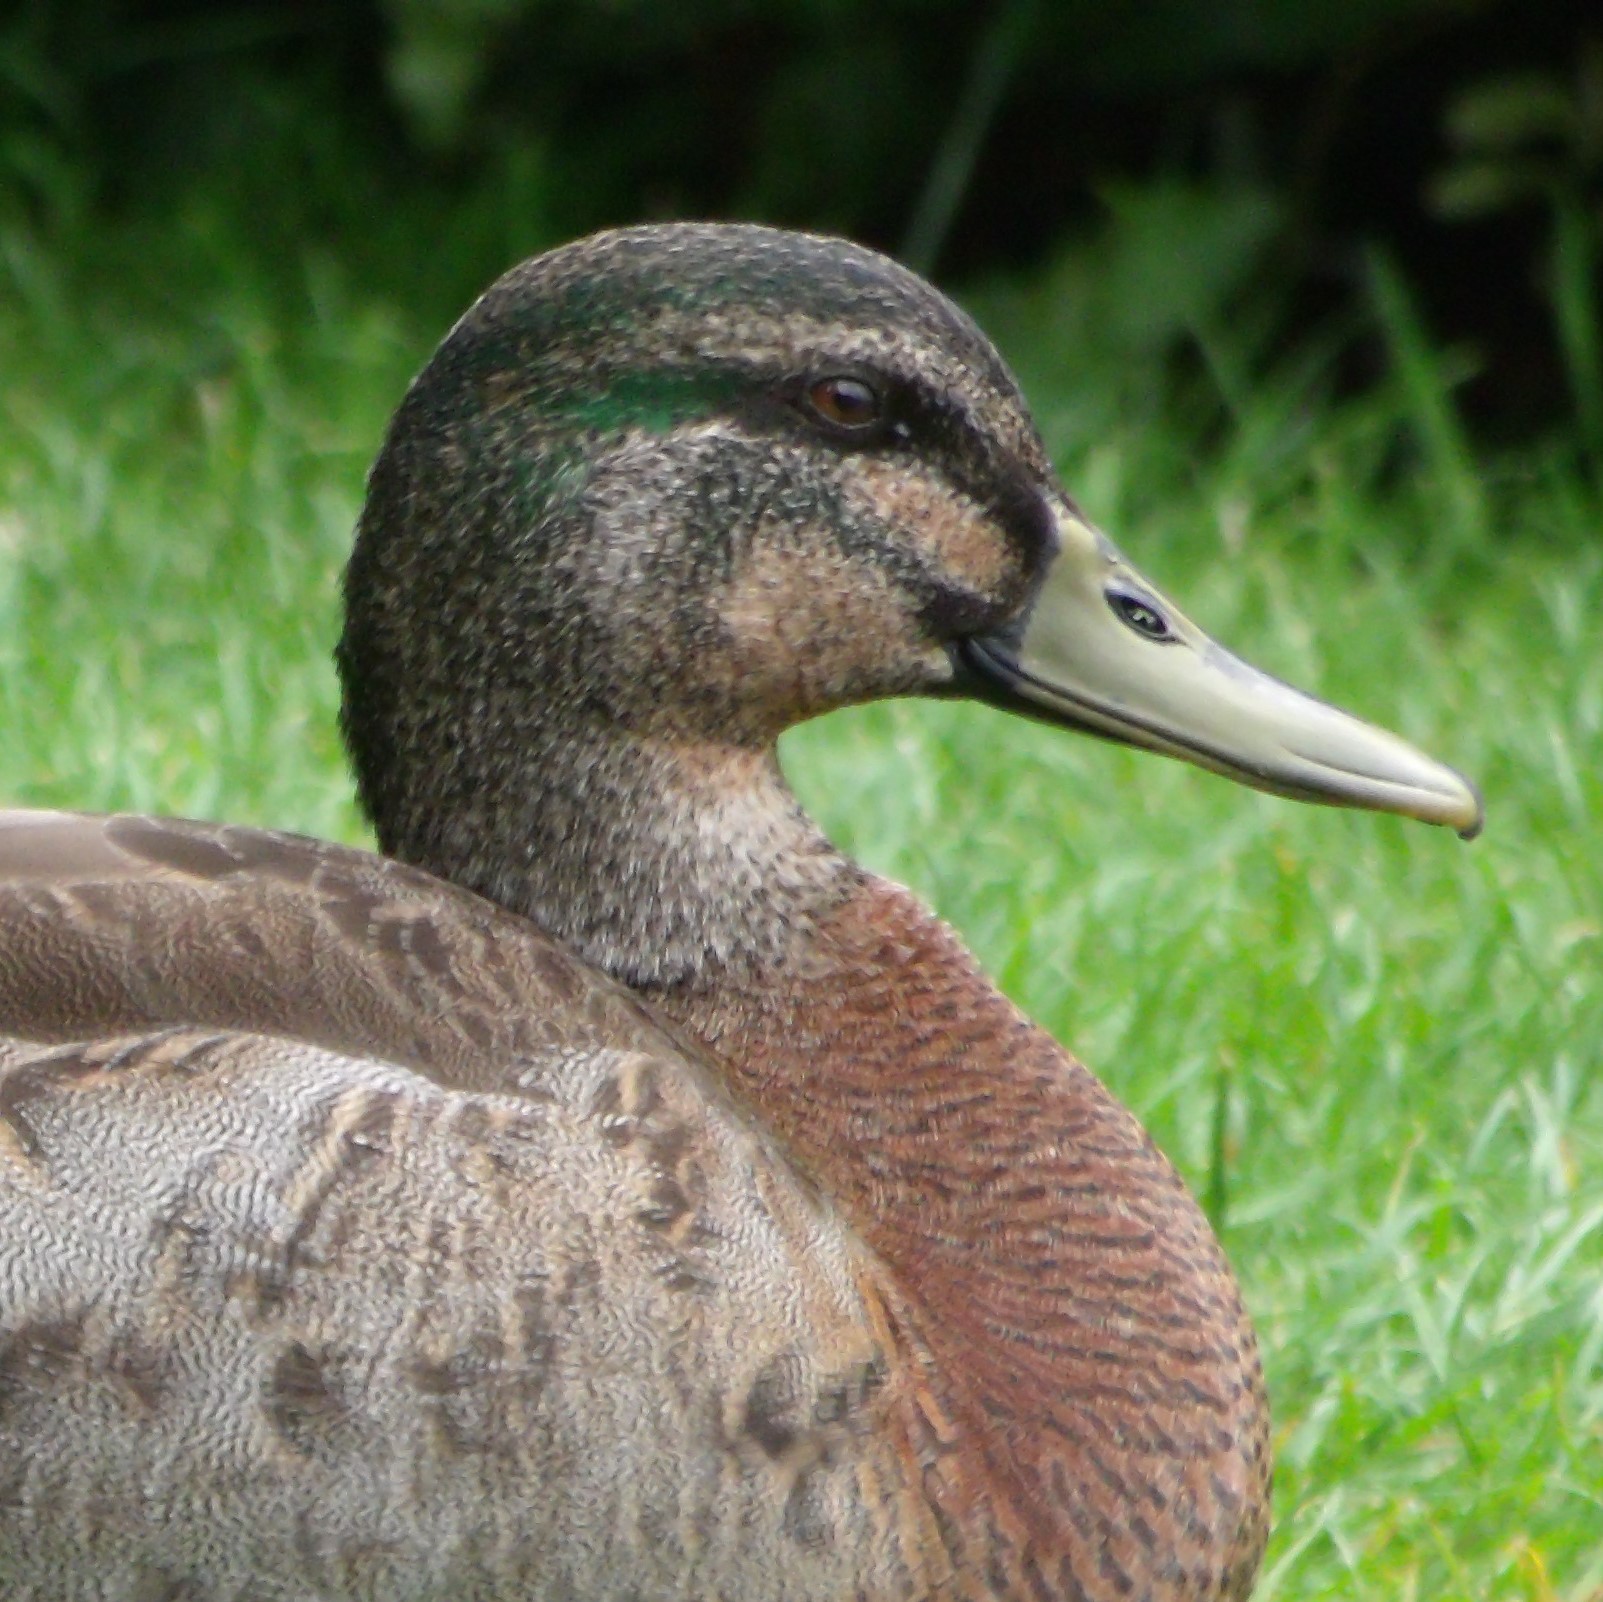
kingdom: Animalia
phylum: Chordata
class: Aves
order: Anseriformes
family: Anatidae
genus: Anas
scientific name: Anas
